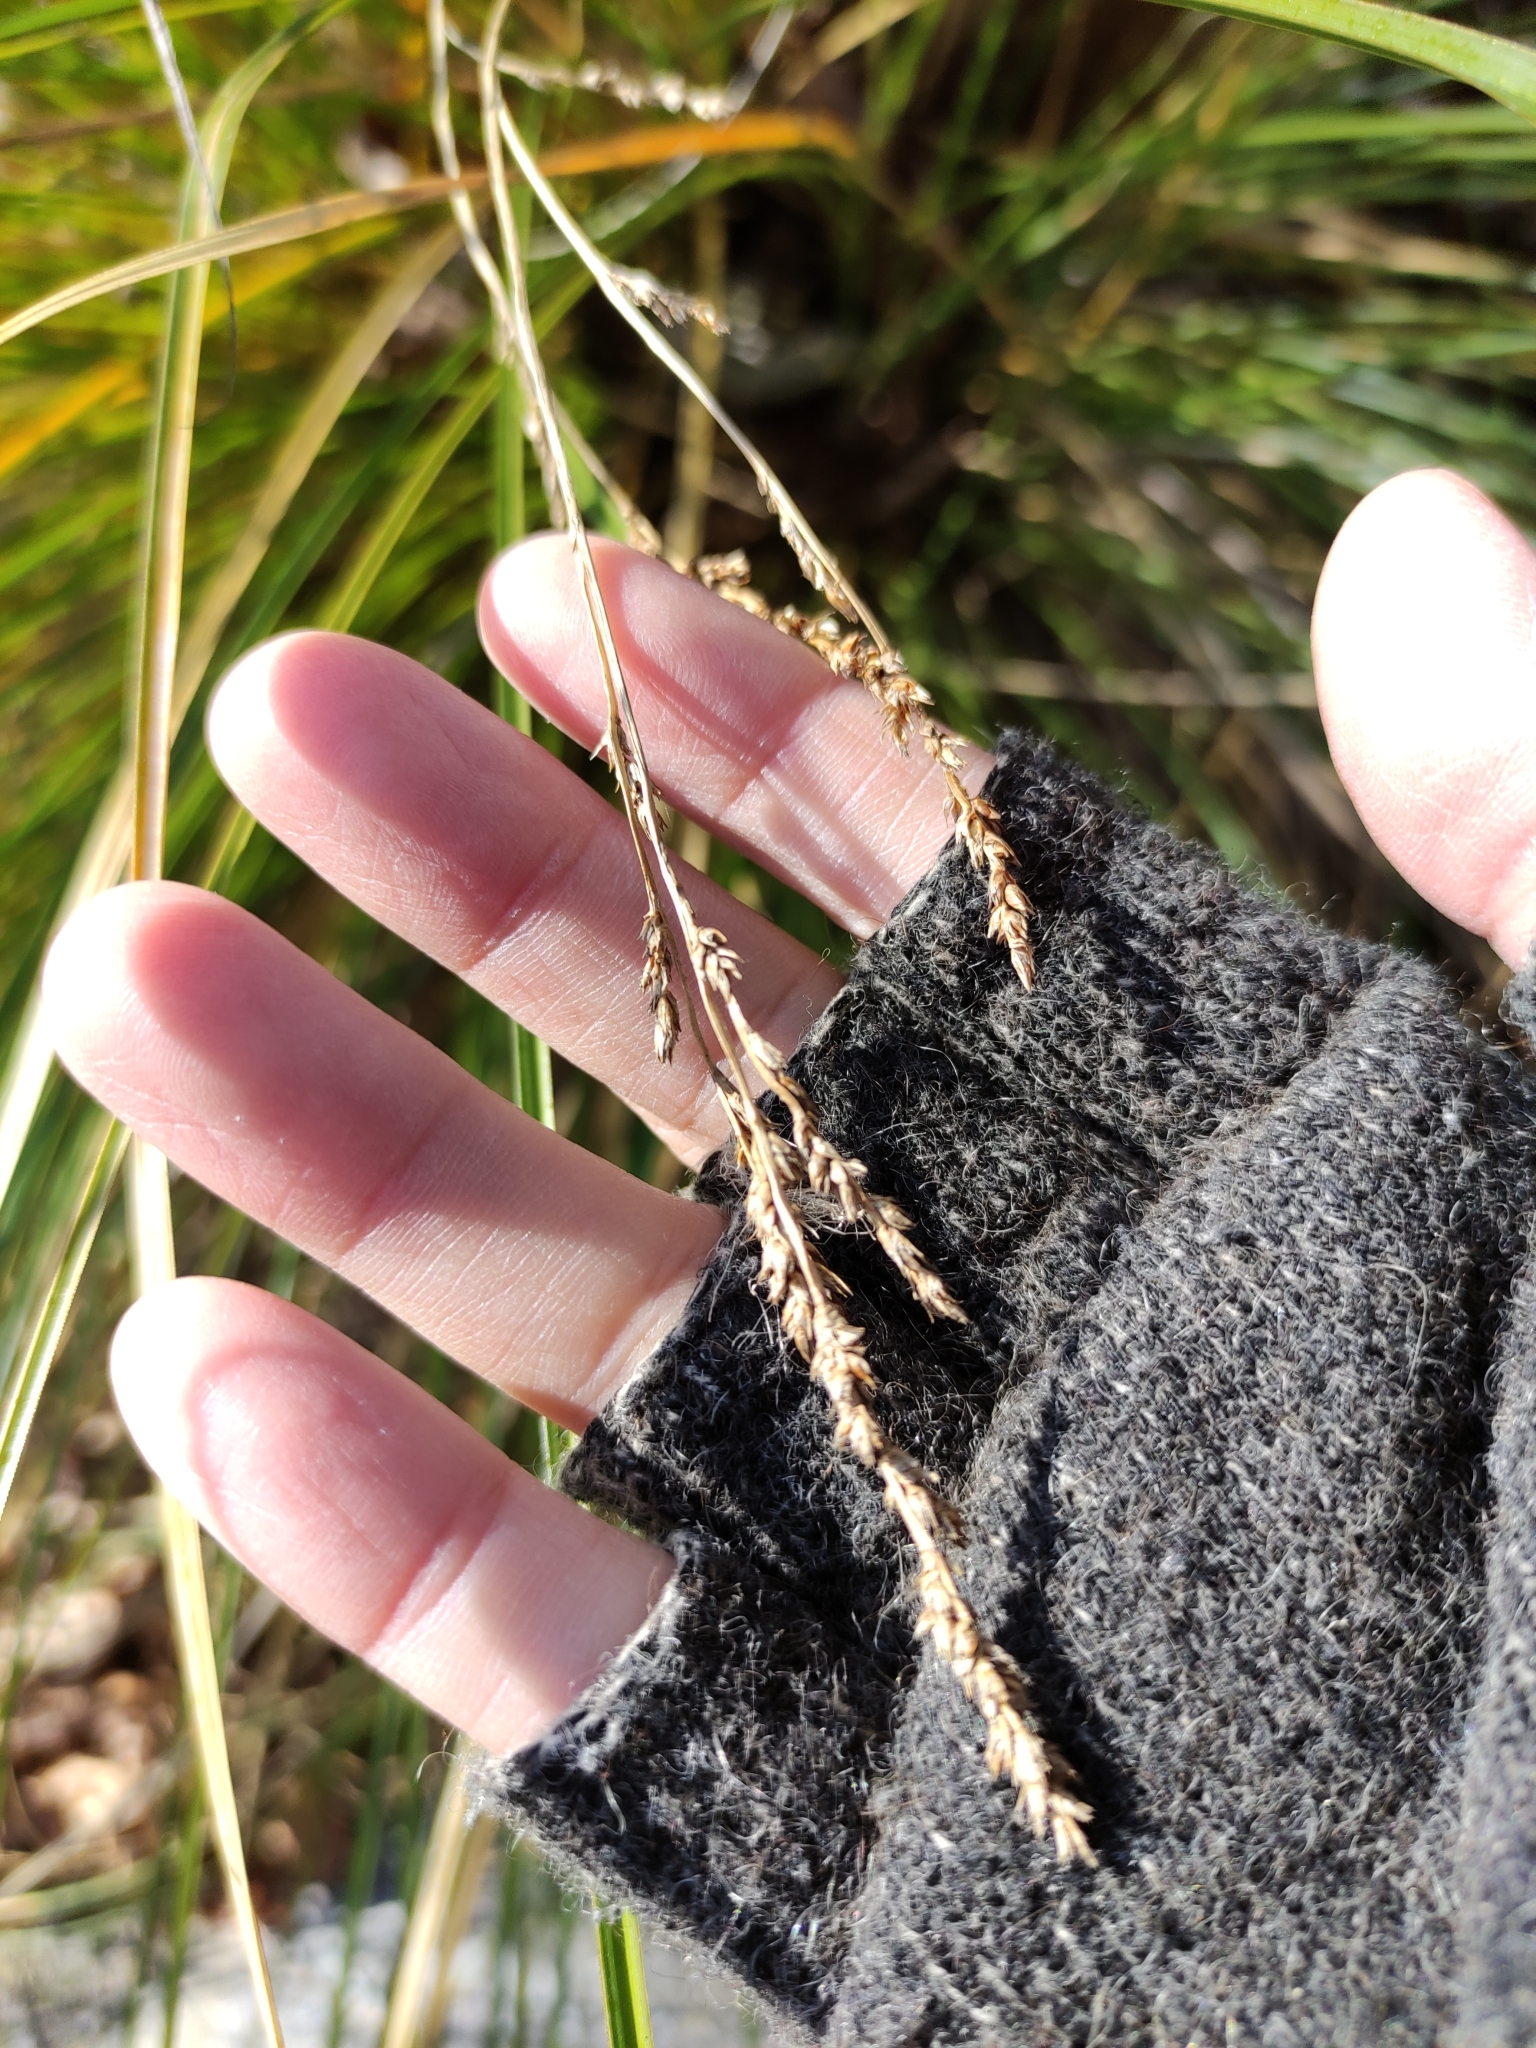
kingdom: Plantae
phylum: Tracheophyta
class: Liliopsida
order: Poales
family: Cyperaceae
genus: Carex
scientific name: Carex secta
